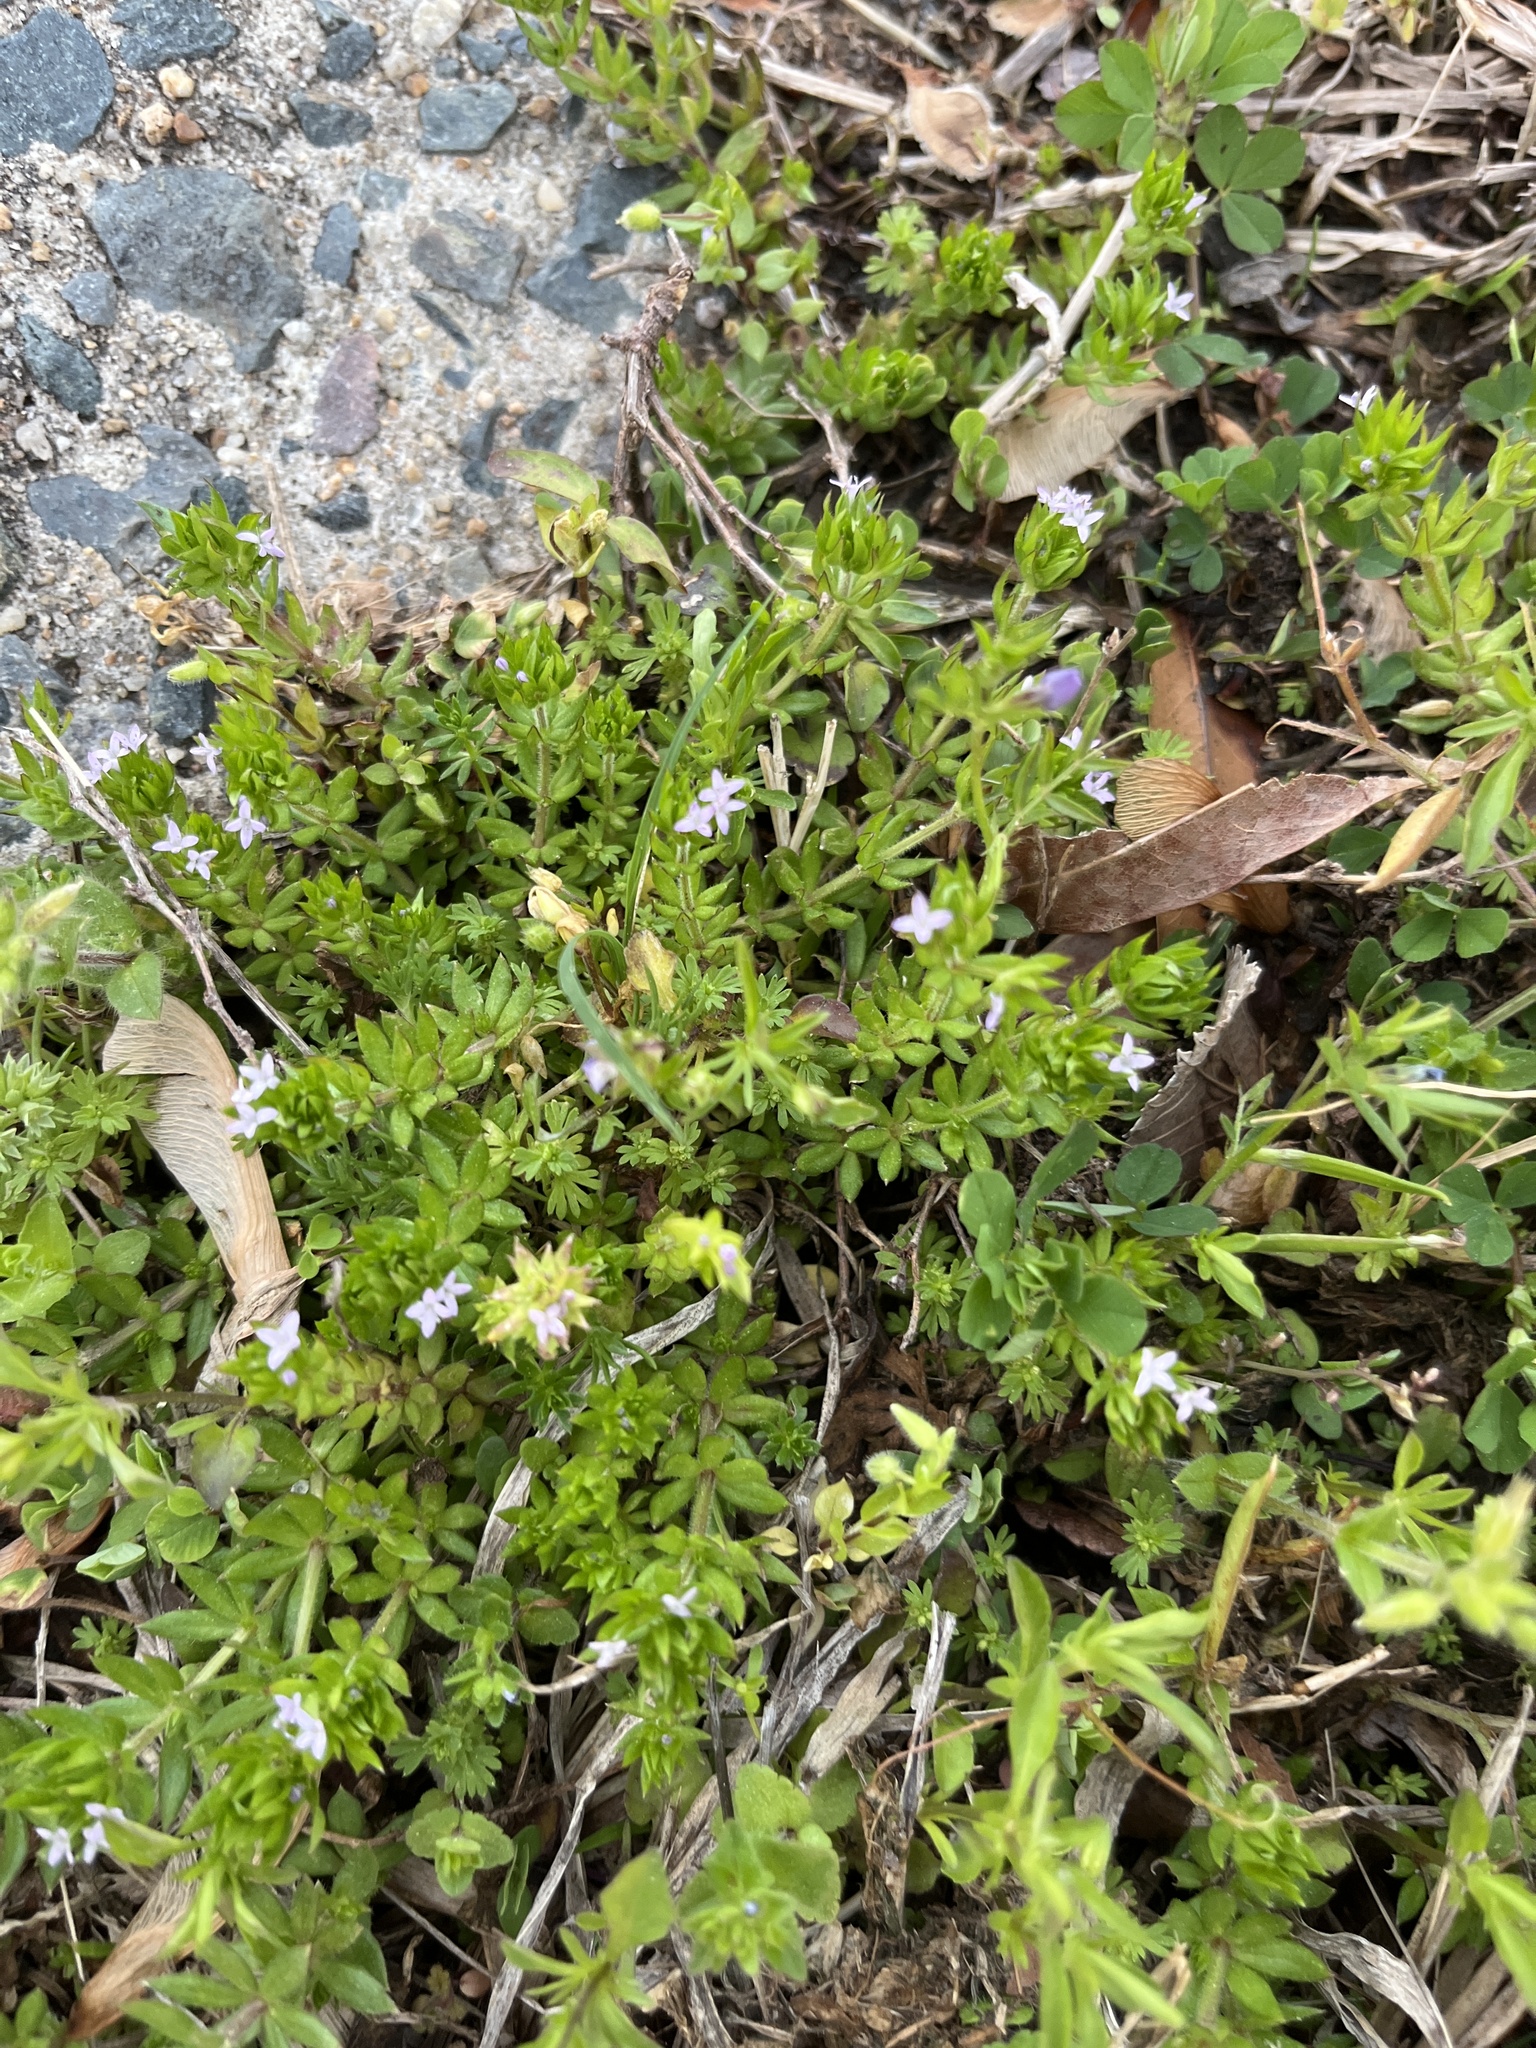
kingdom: Plantae
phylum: Tracheophyta
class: Magnoliopsida
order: Gentianales
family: Rubiaceae
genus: Sherardia
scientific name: Sherardia arvensis
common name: Field madder
